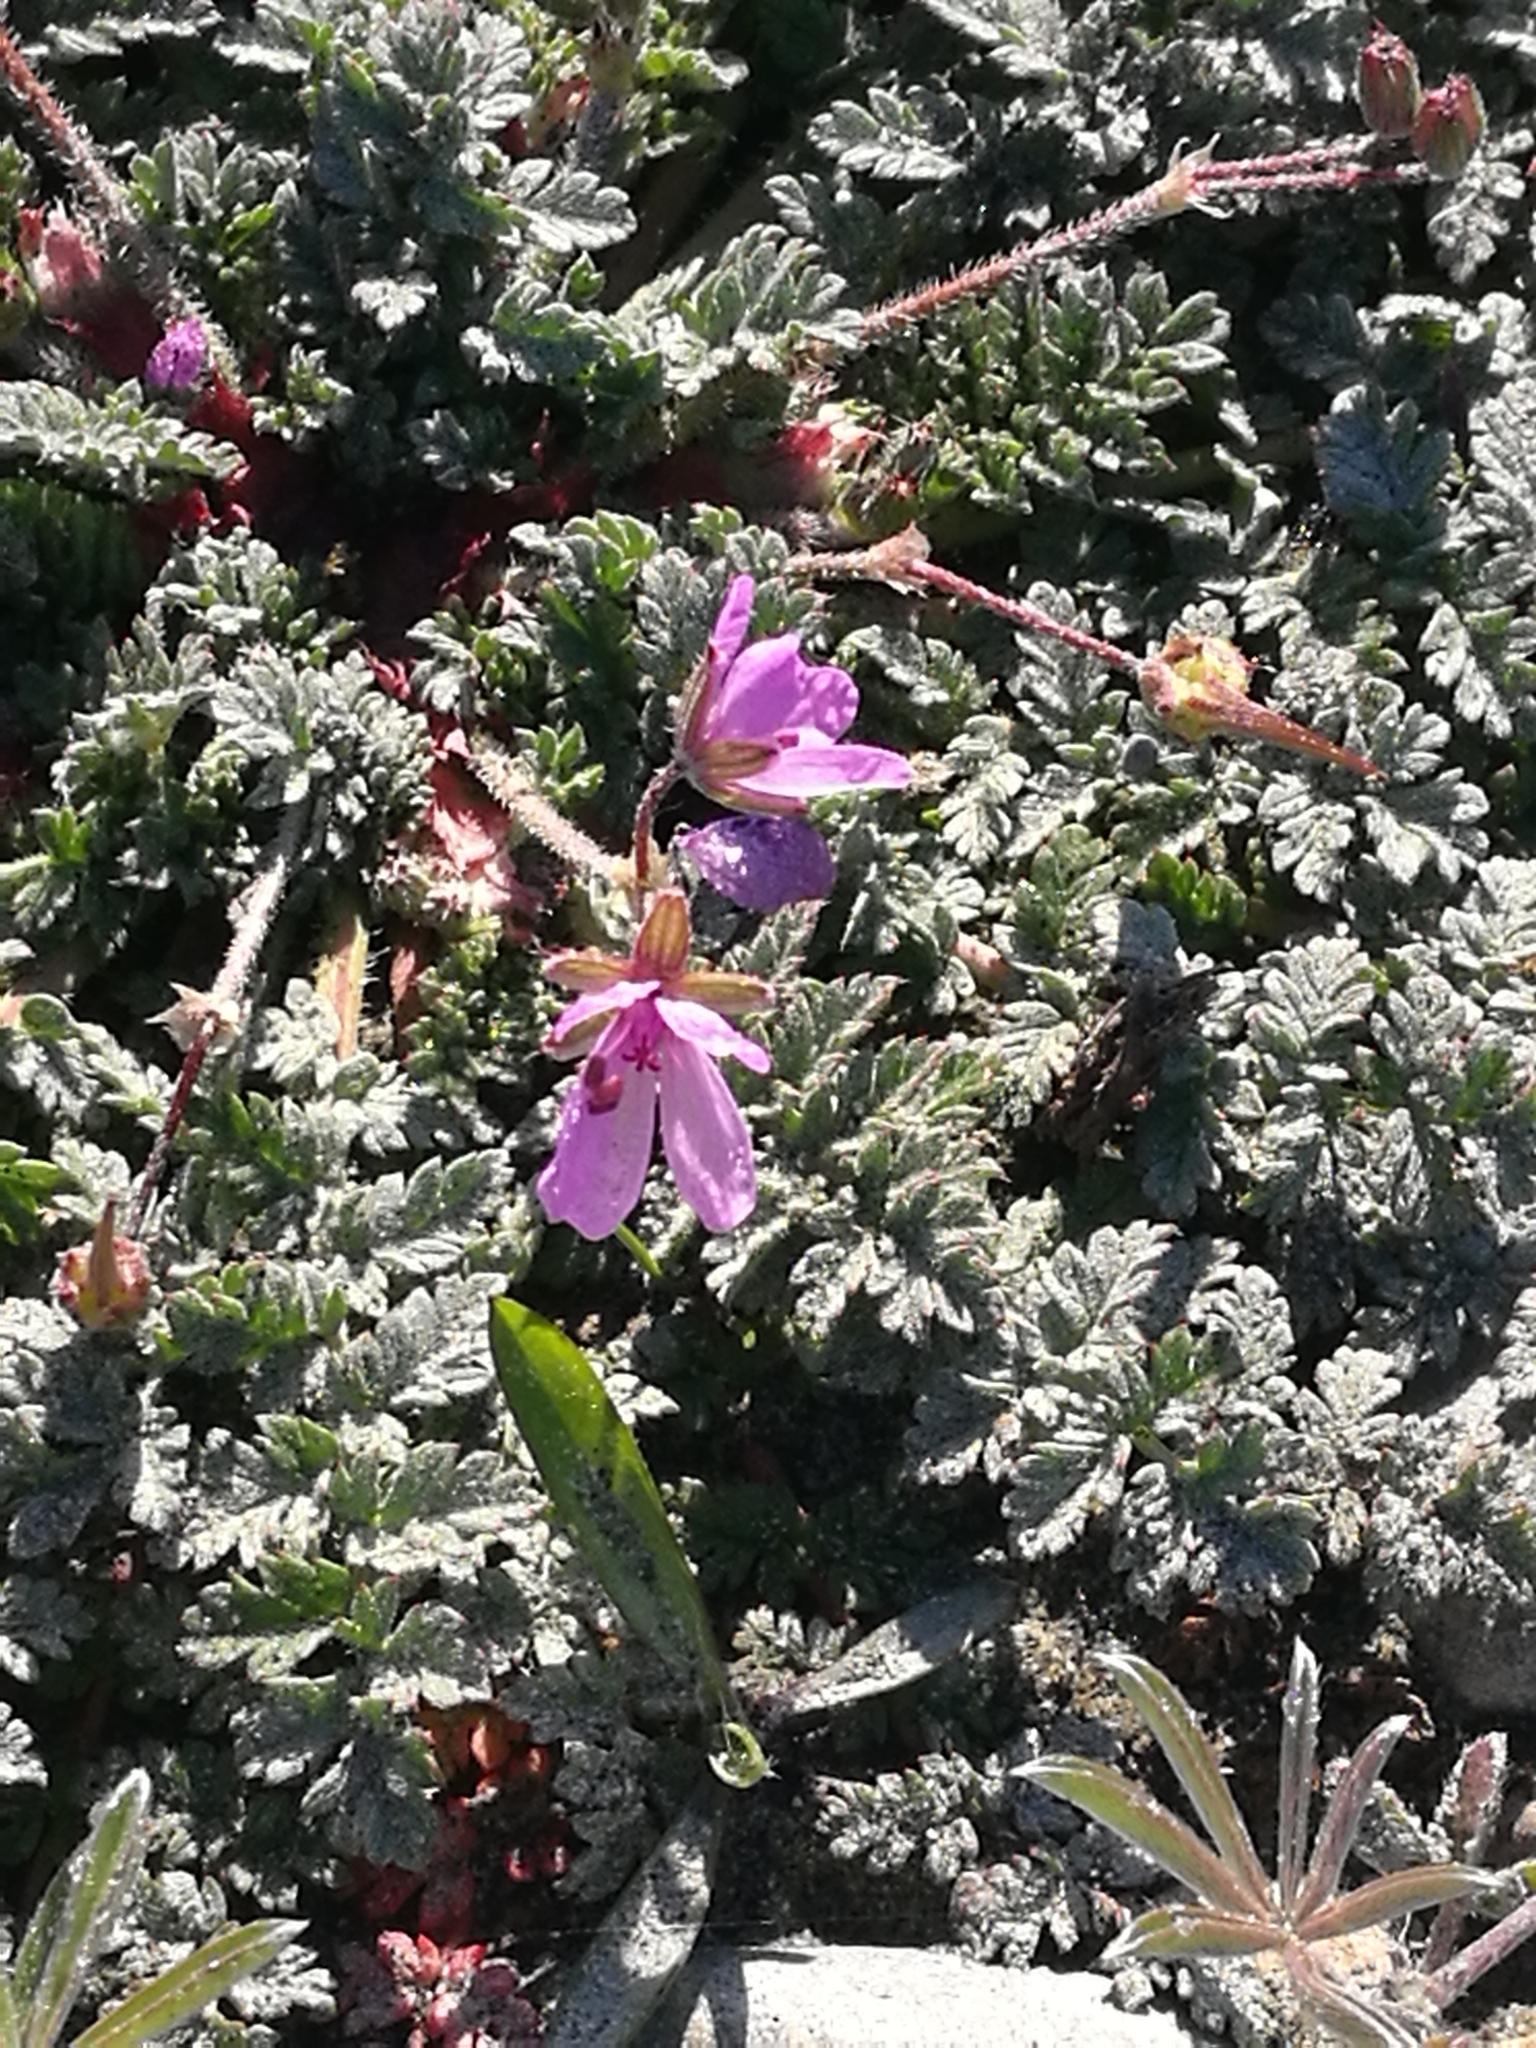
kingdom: Plantae
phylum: Tracheophyta
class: Magnoliopsida
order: Geraniales
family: Geraniaceae
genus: Erodium
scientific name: Erodium cicutarium
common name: Common stork's-bill
